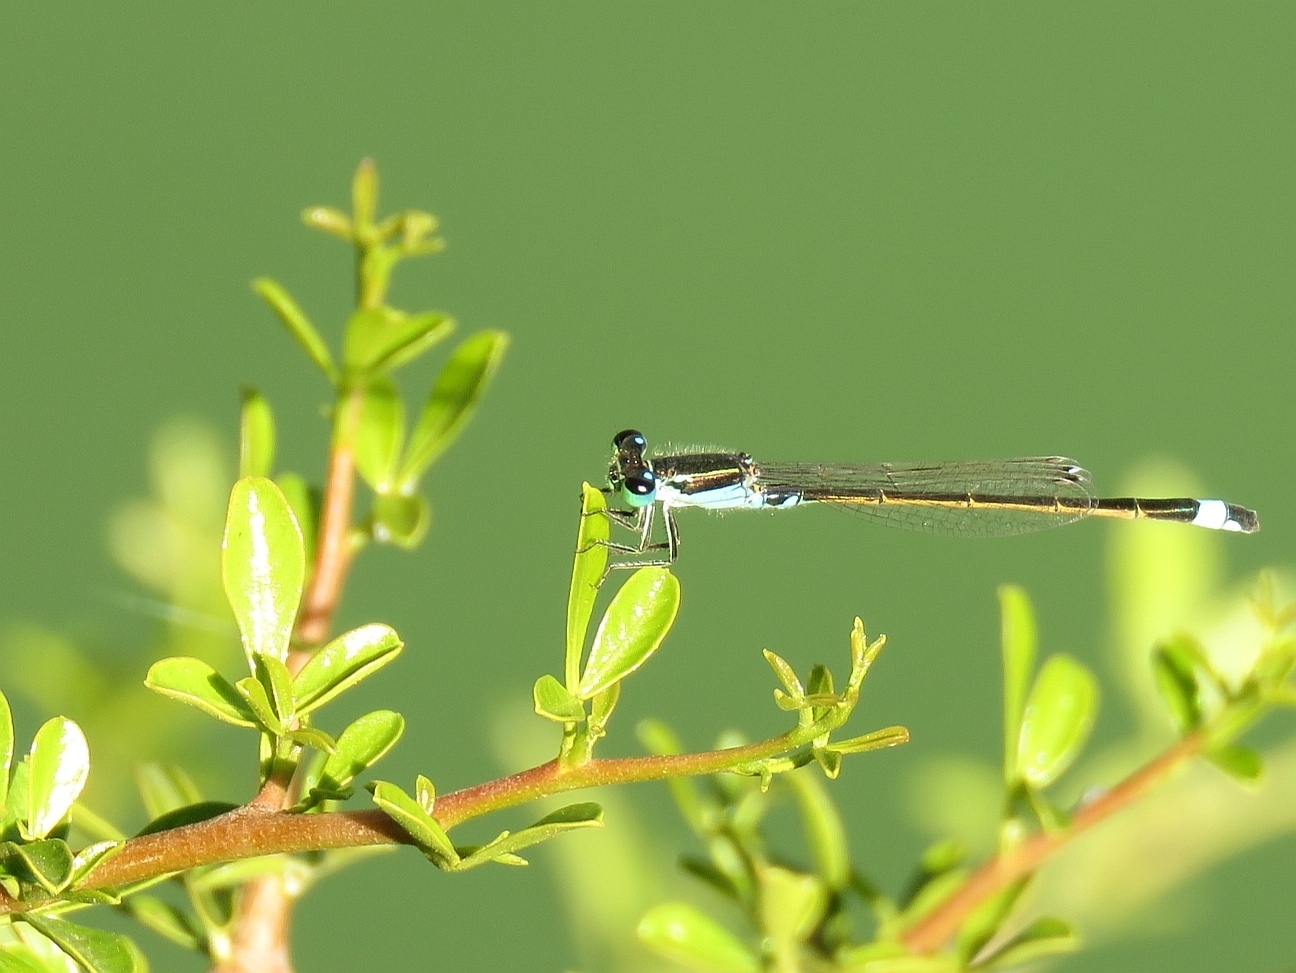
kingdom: Animalia
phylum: Arthropoda
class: Insecta
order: Odonata
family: Coenagrionidae
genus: Ischnura
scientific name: Ischnura senegalensis
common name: Tropical bluetail
